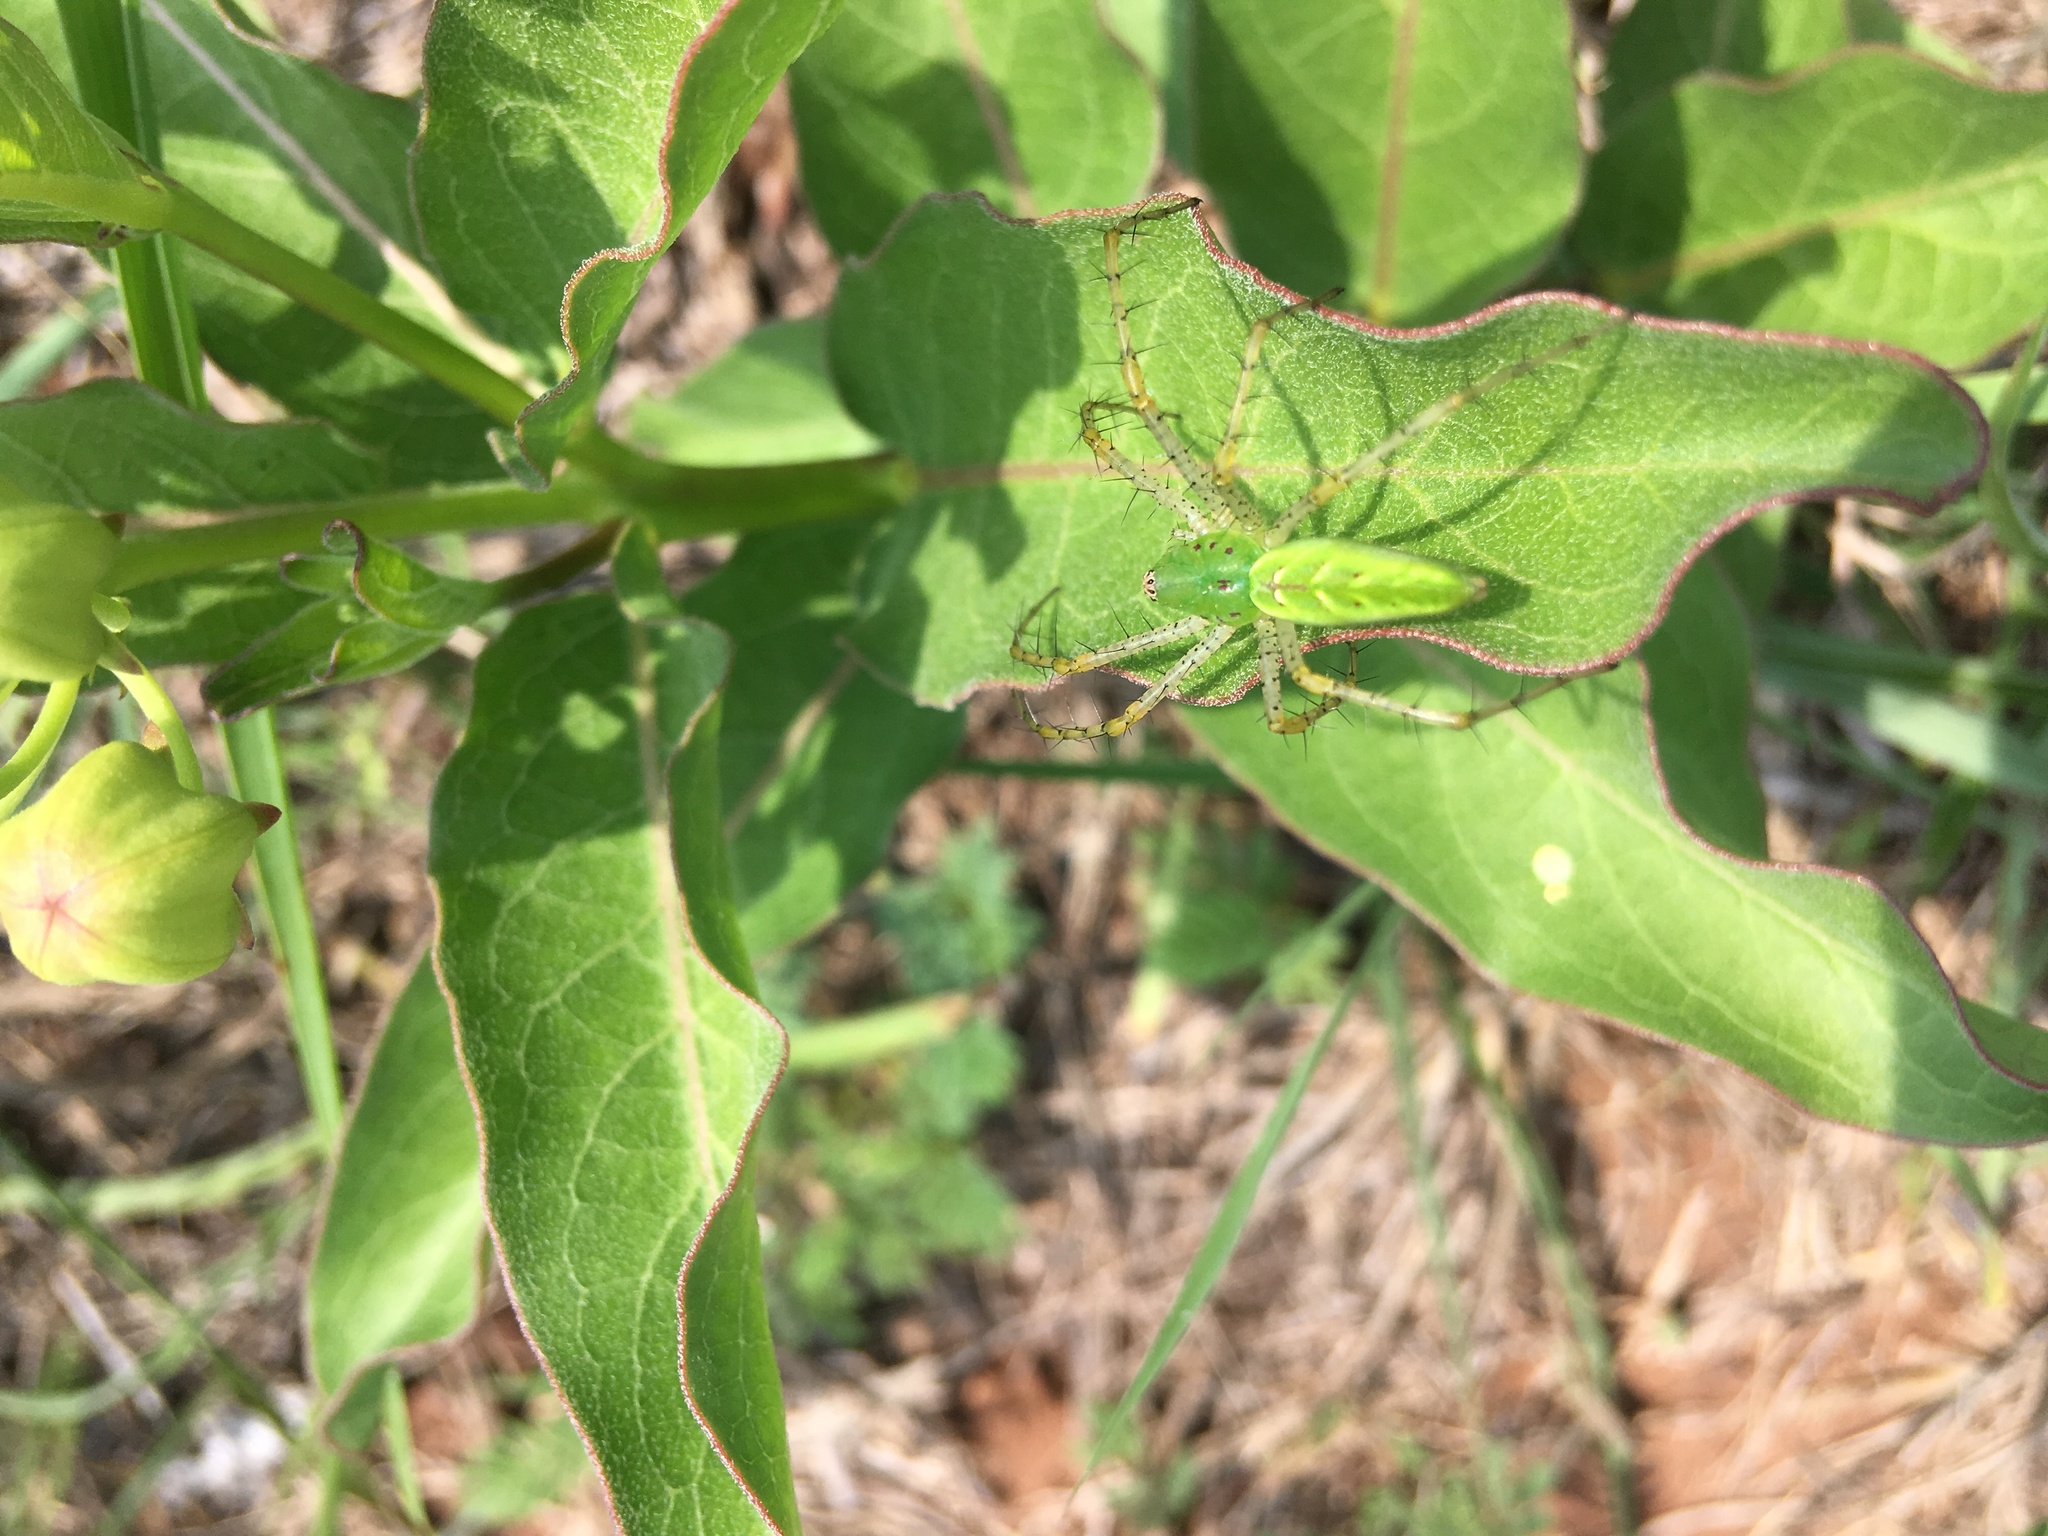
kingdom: Animalia
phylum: Arthropoda
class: Arachnida
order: Araneae
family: Oxyopidae
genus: Peucetia
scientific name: Peucetia viridans
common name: Lynx spiders
